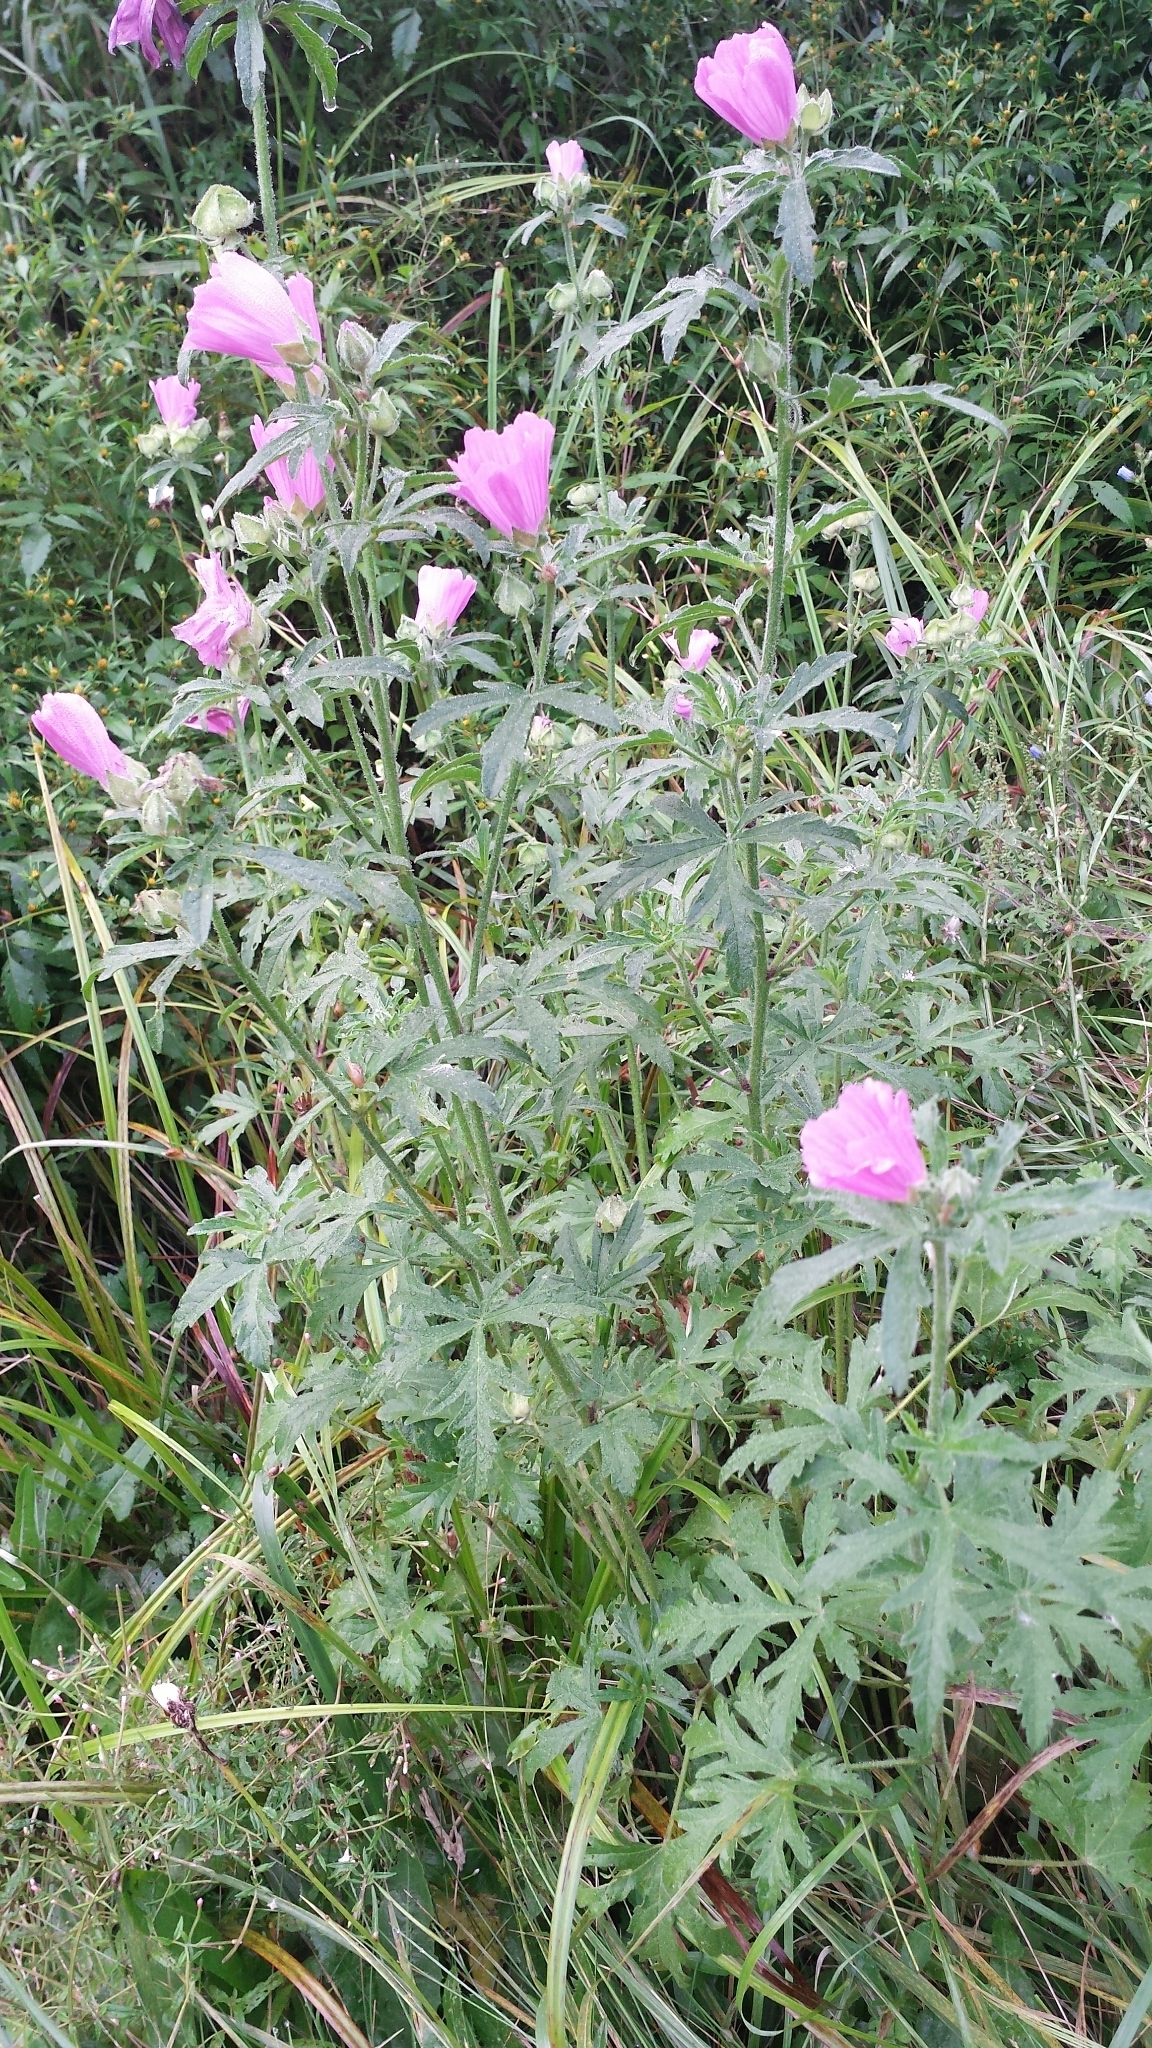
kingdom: Plantae
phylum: Tracheophyta
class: Magnoliopsida
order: Malvales
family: Malvaceae
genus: Malva
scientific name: Malva alcea
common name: Greater musk-mallow
